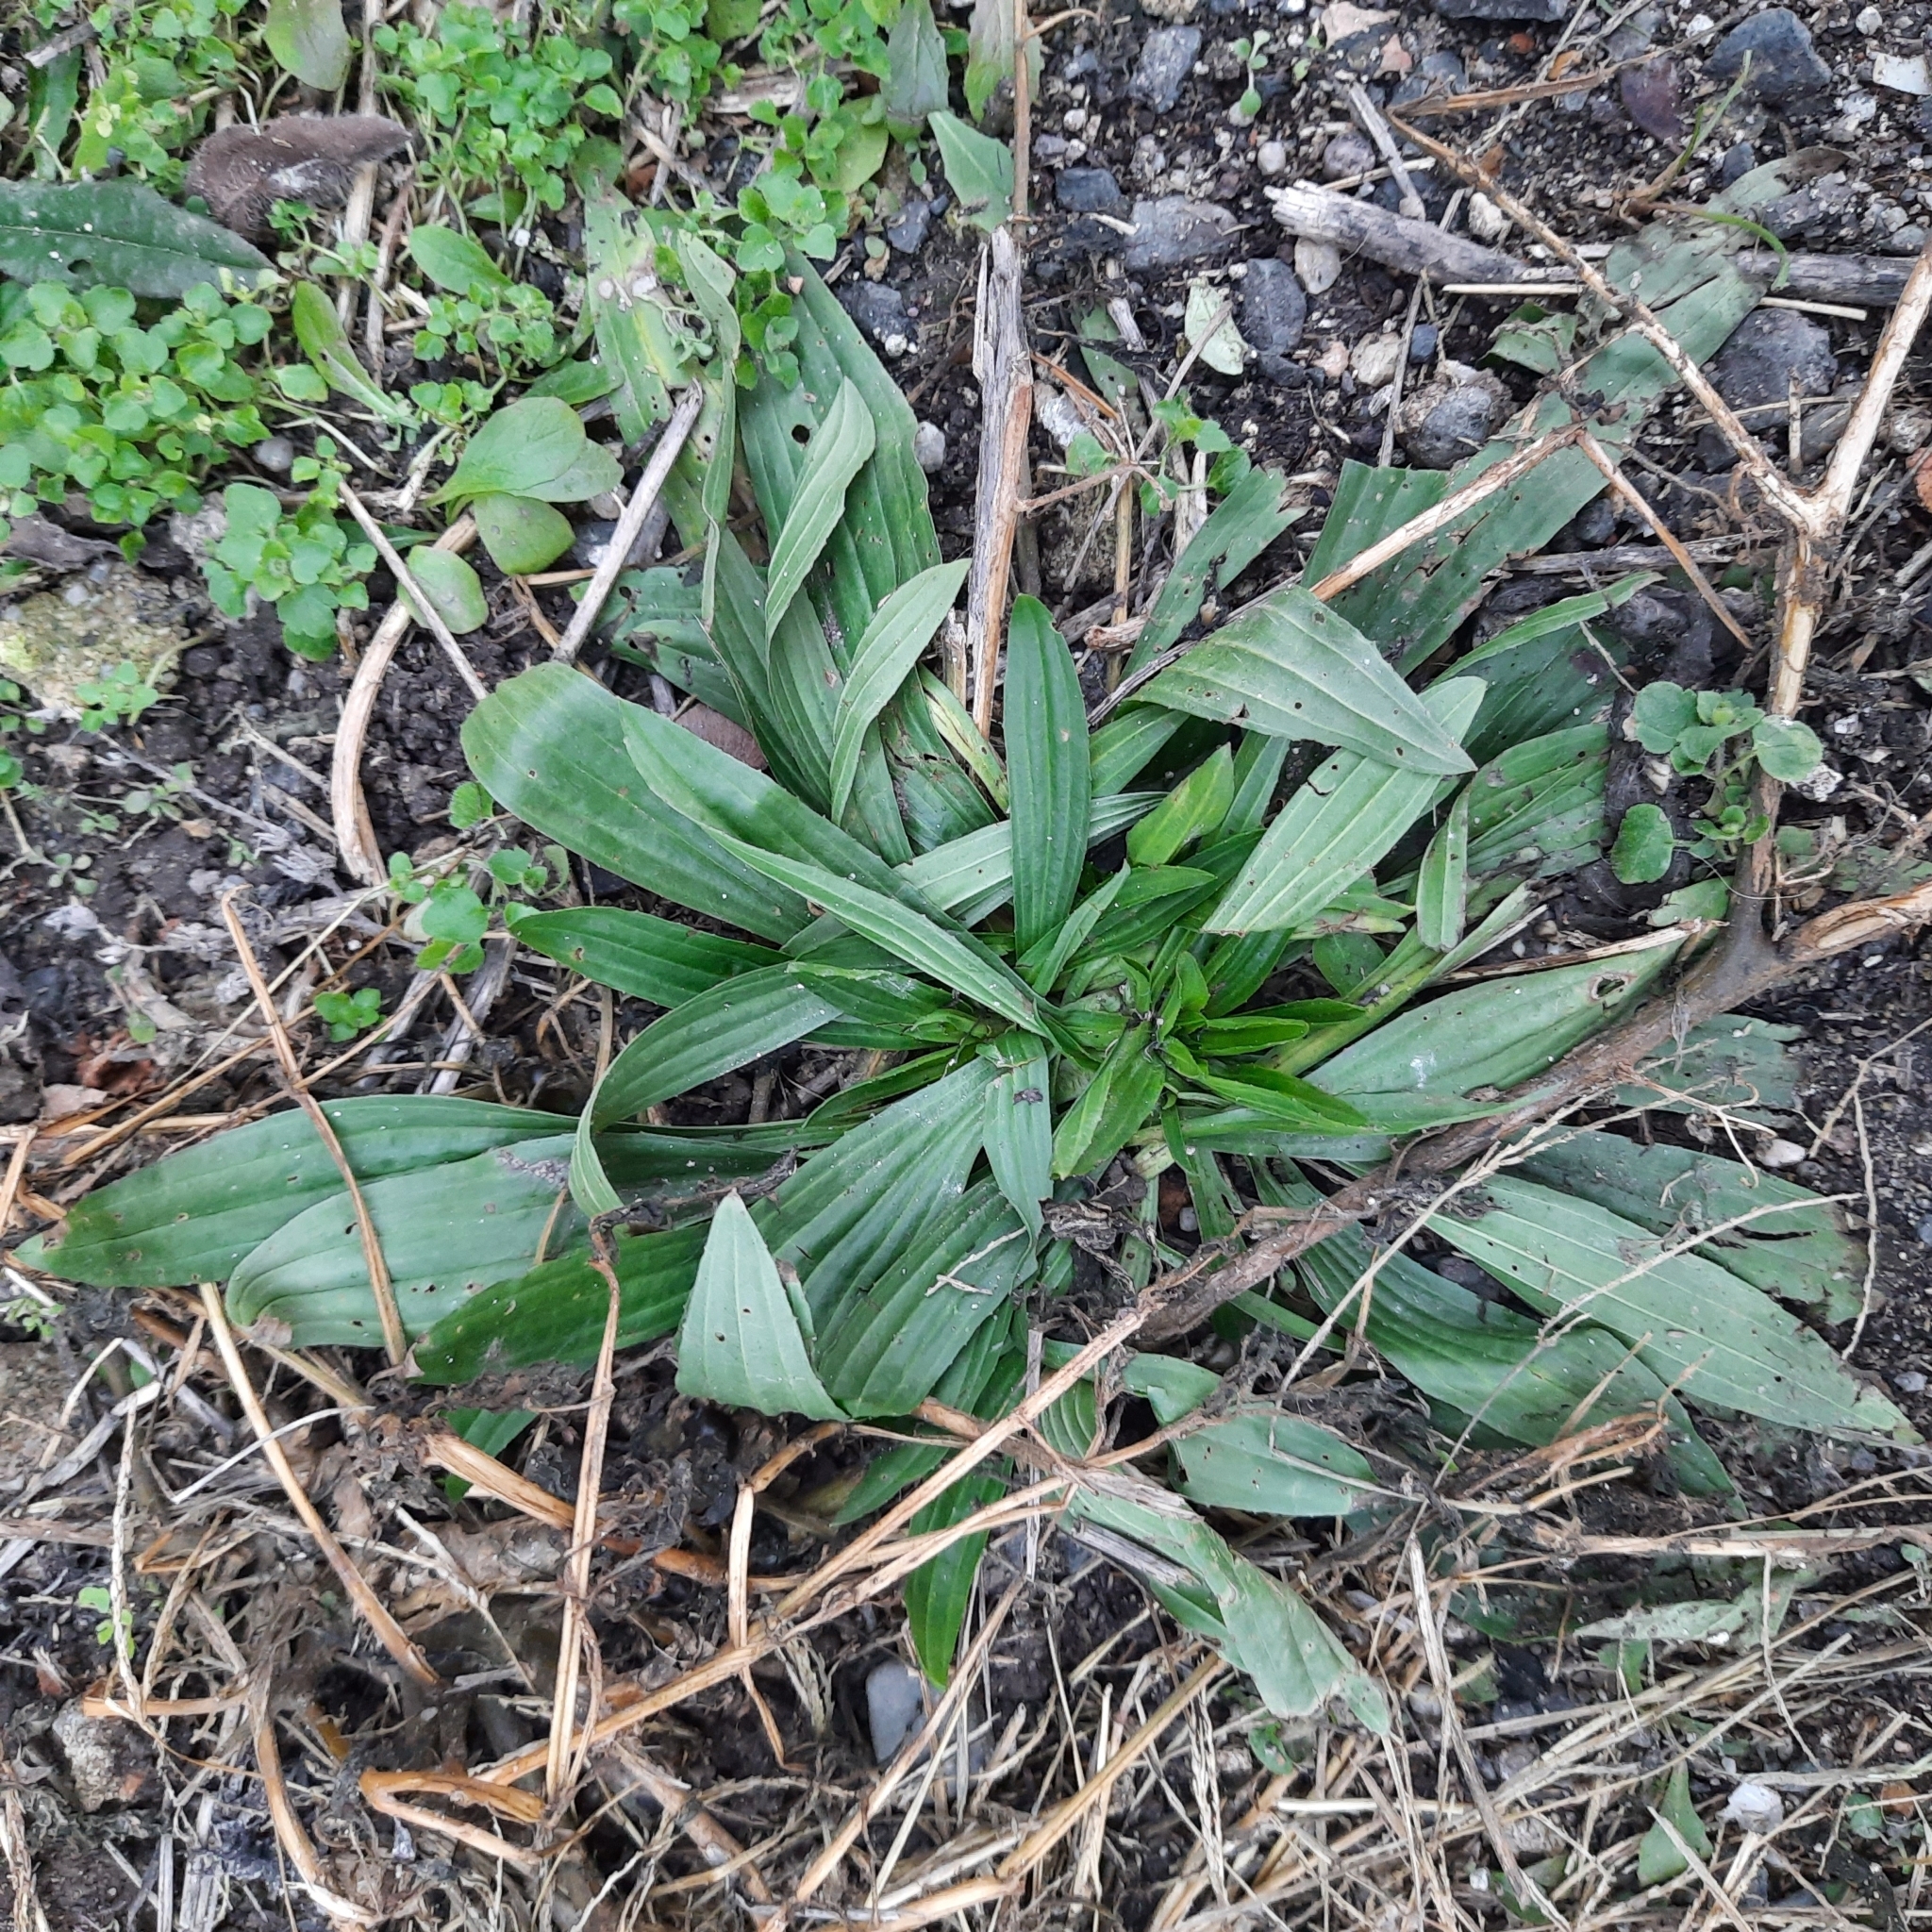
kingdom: Plantae
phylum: Tracheophyta
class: Magnoliopsida
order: Lamiales
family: Plantaginaceae
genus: Plantago
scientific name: Plantago lanceolata
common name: Ribwort plantain
